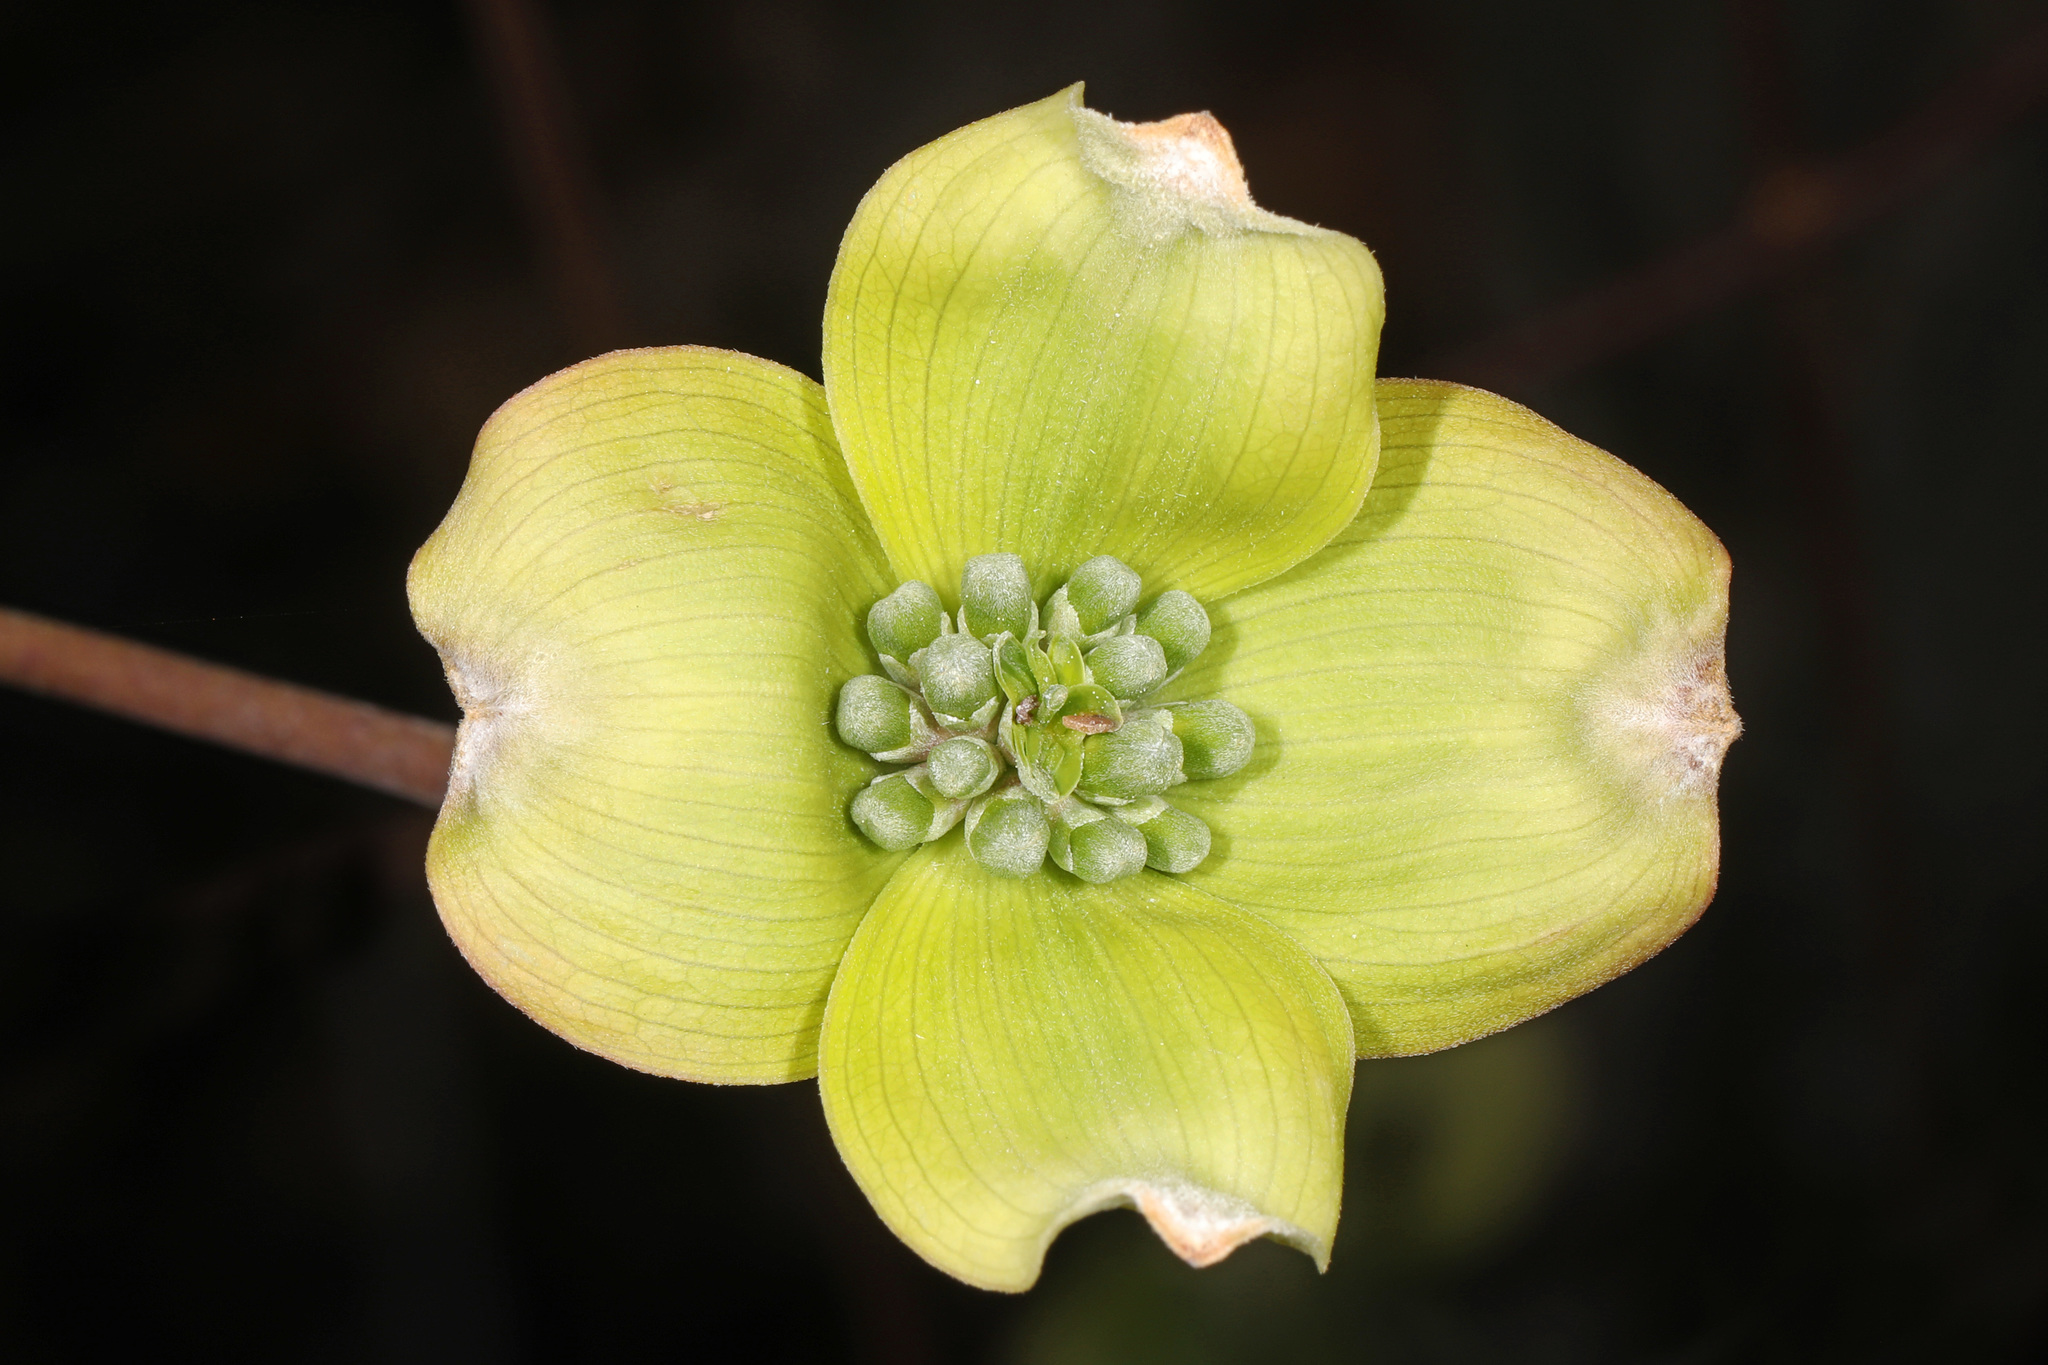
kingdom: Plantae
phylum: Tracheophyta
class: Magnoliopsida
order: Cornales
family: Cornaceae
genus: Cornus
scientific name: Cornus florida
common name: Flowering dogwood
